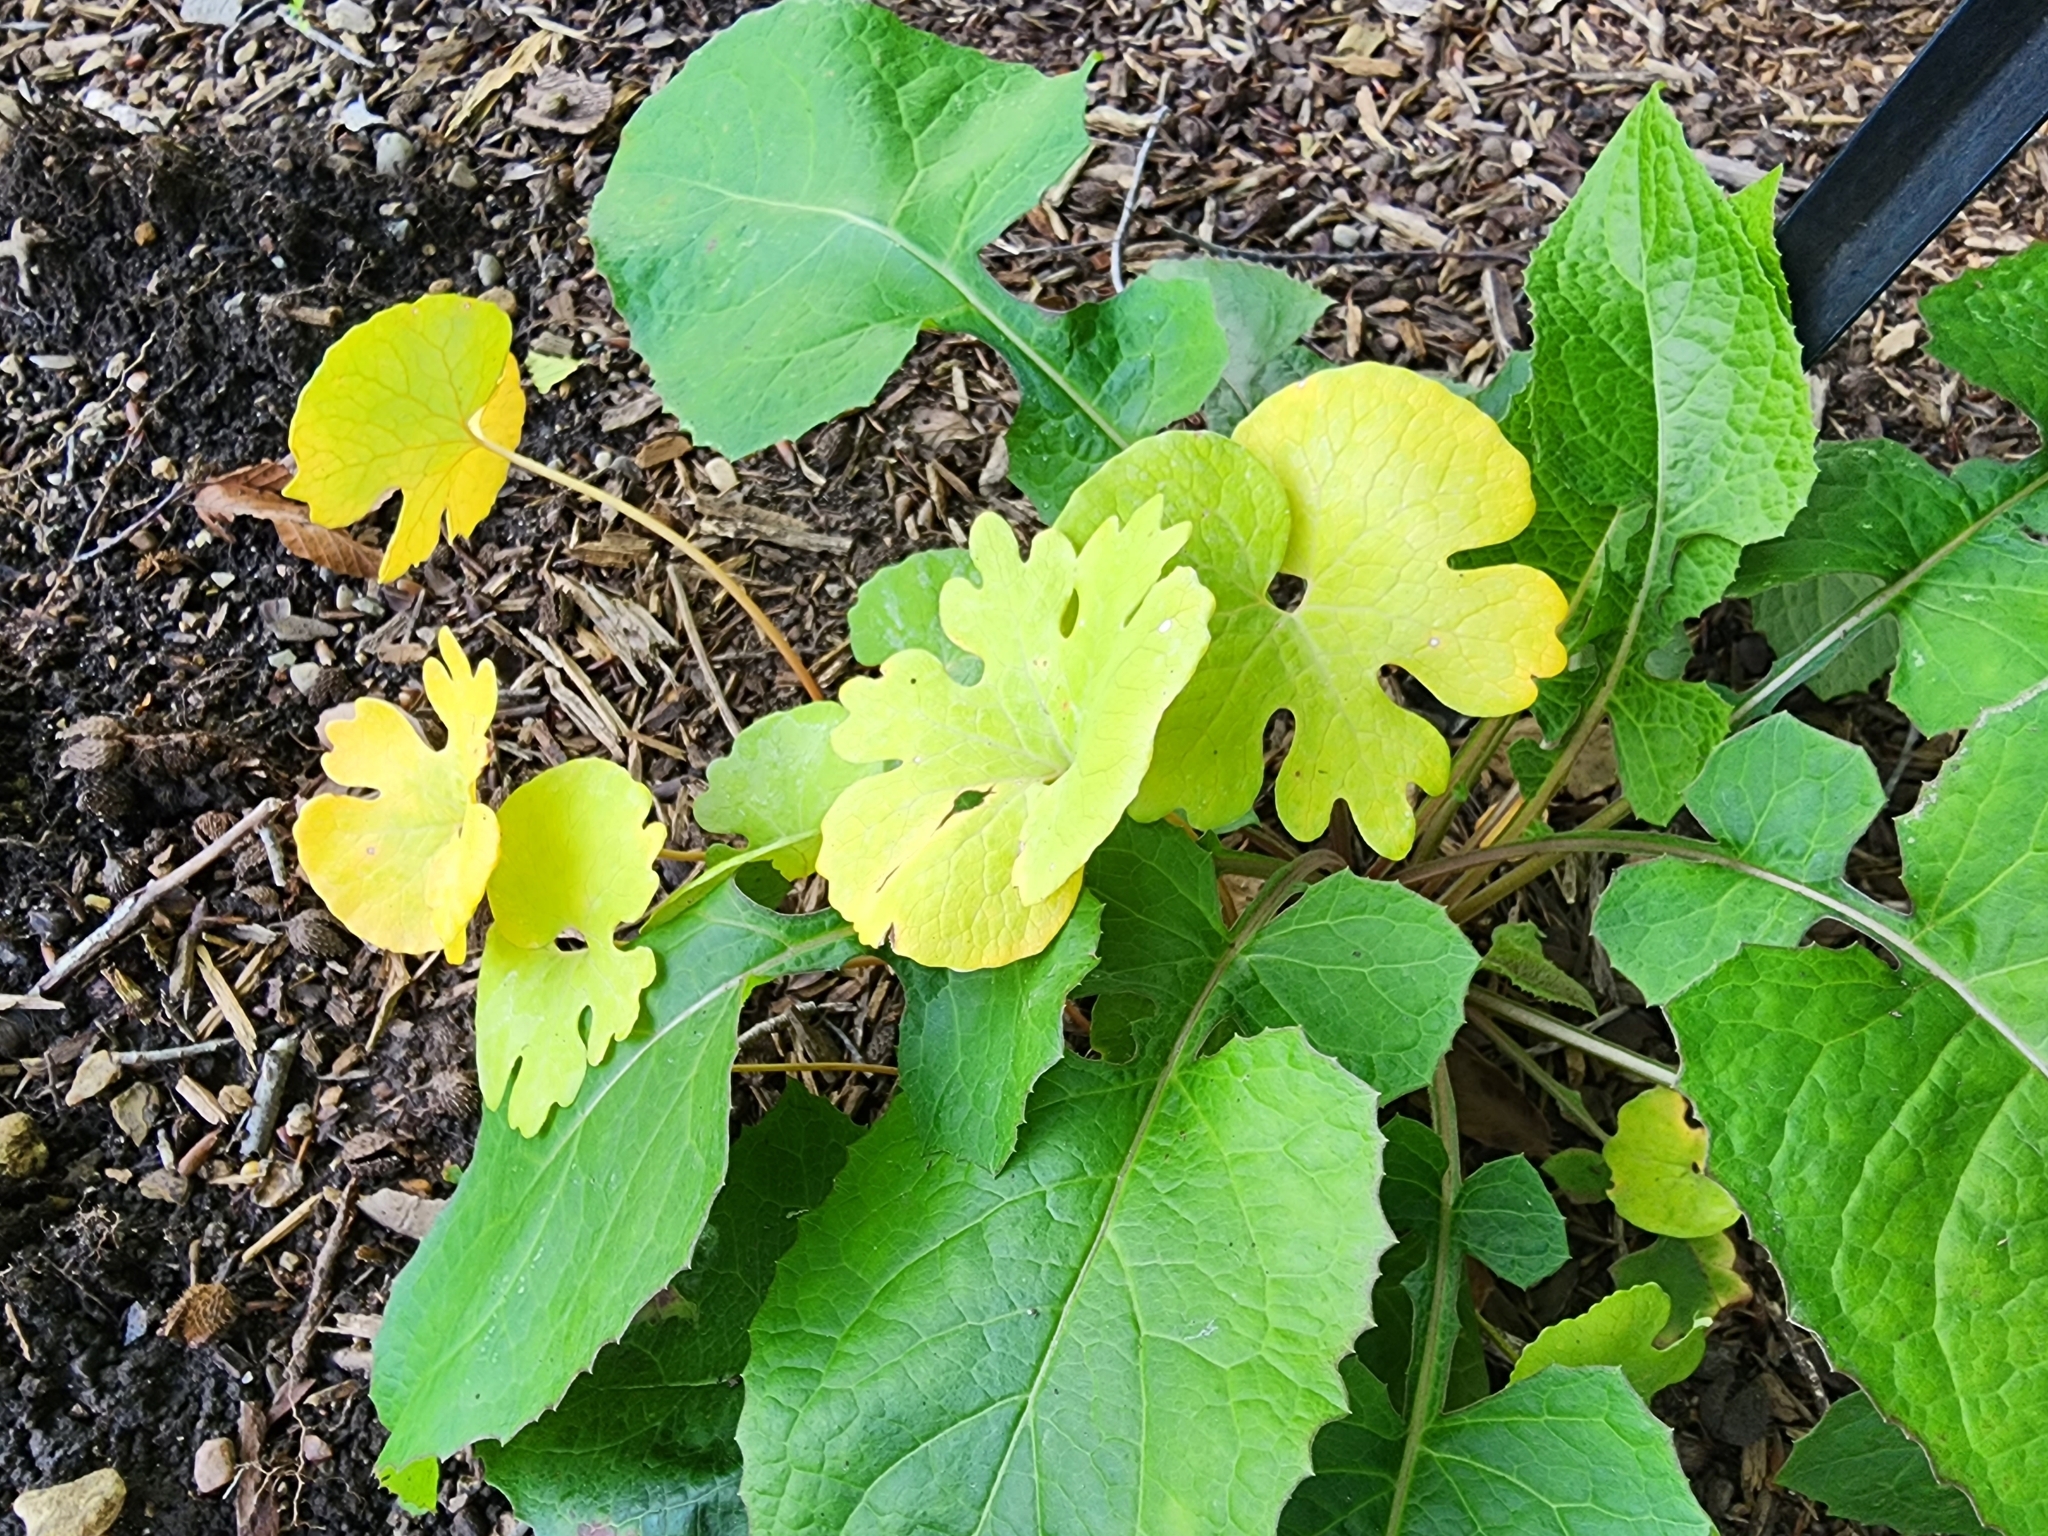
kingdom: Plantae
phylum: Tracheophyta
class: Magnoliopsida
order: Ranunculales
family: Papaveraceae
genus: Sanguinaria
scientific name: Sanguinaria canadensis
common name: Bloodroot
